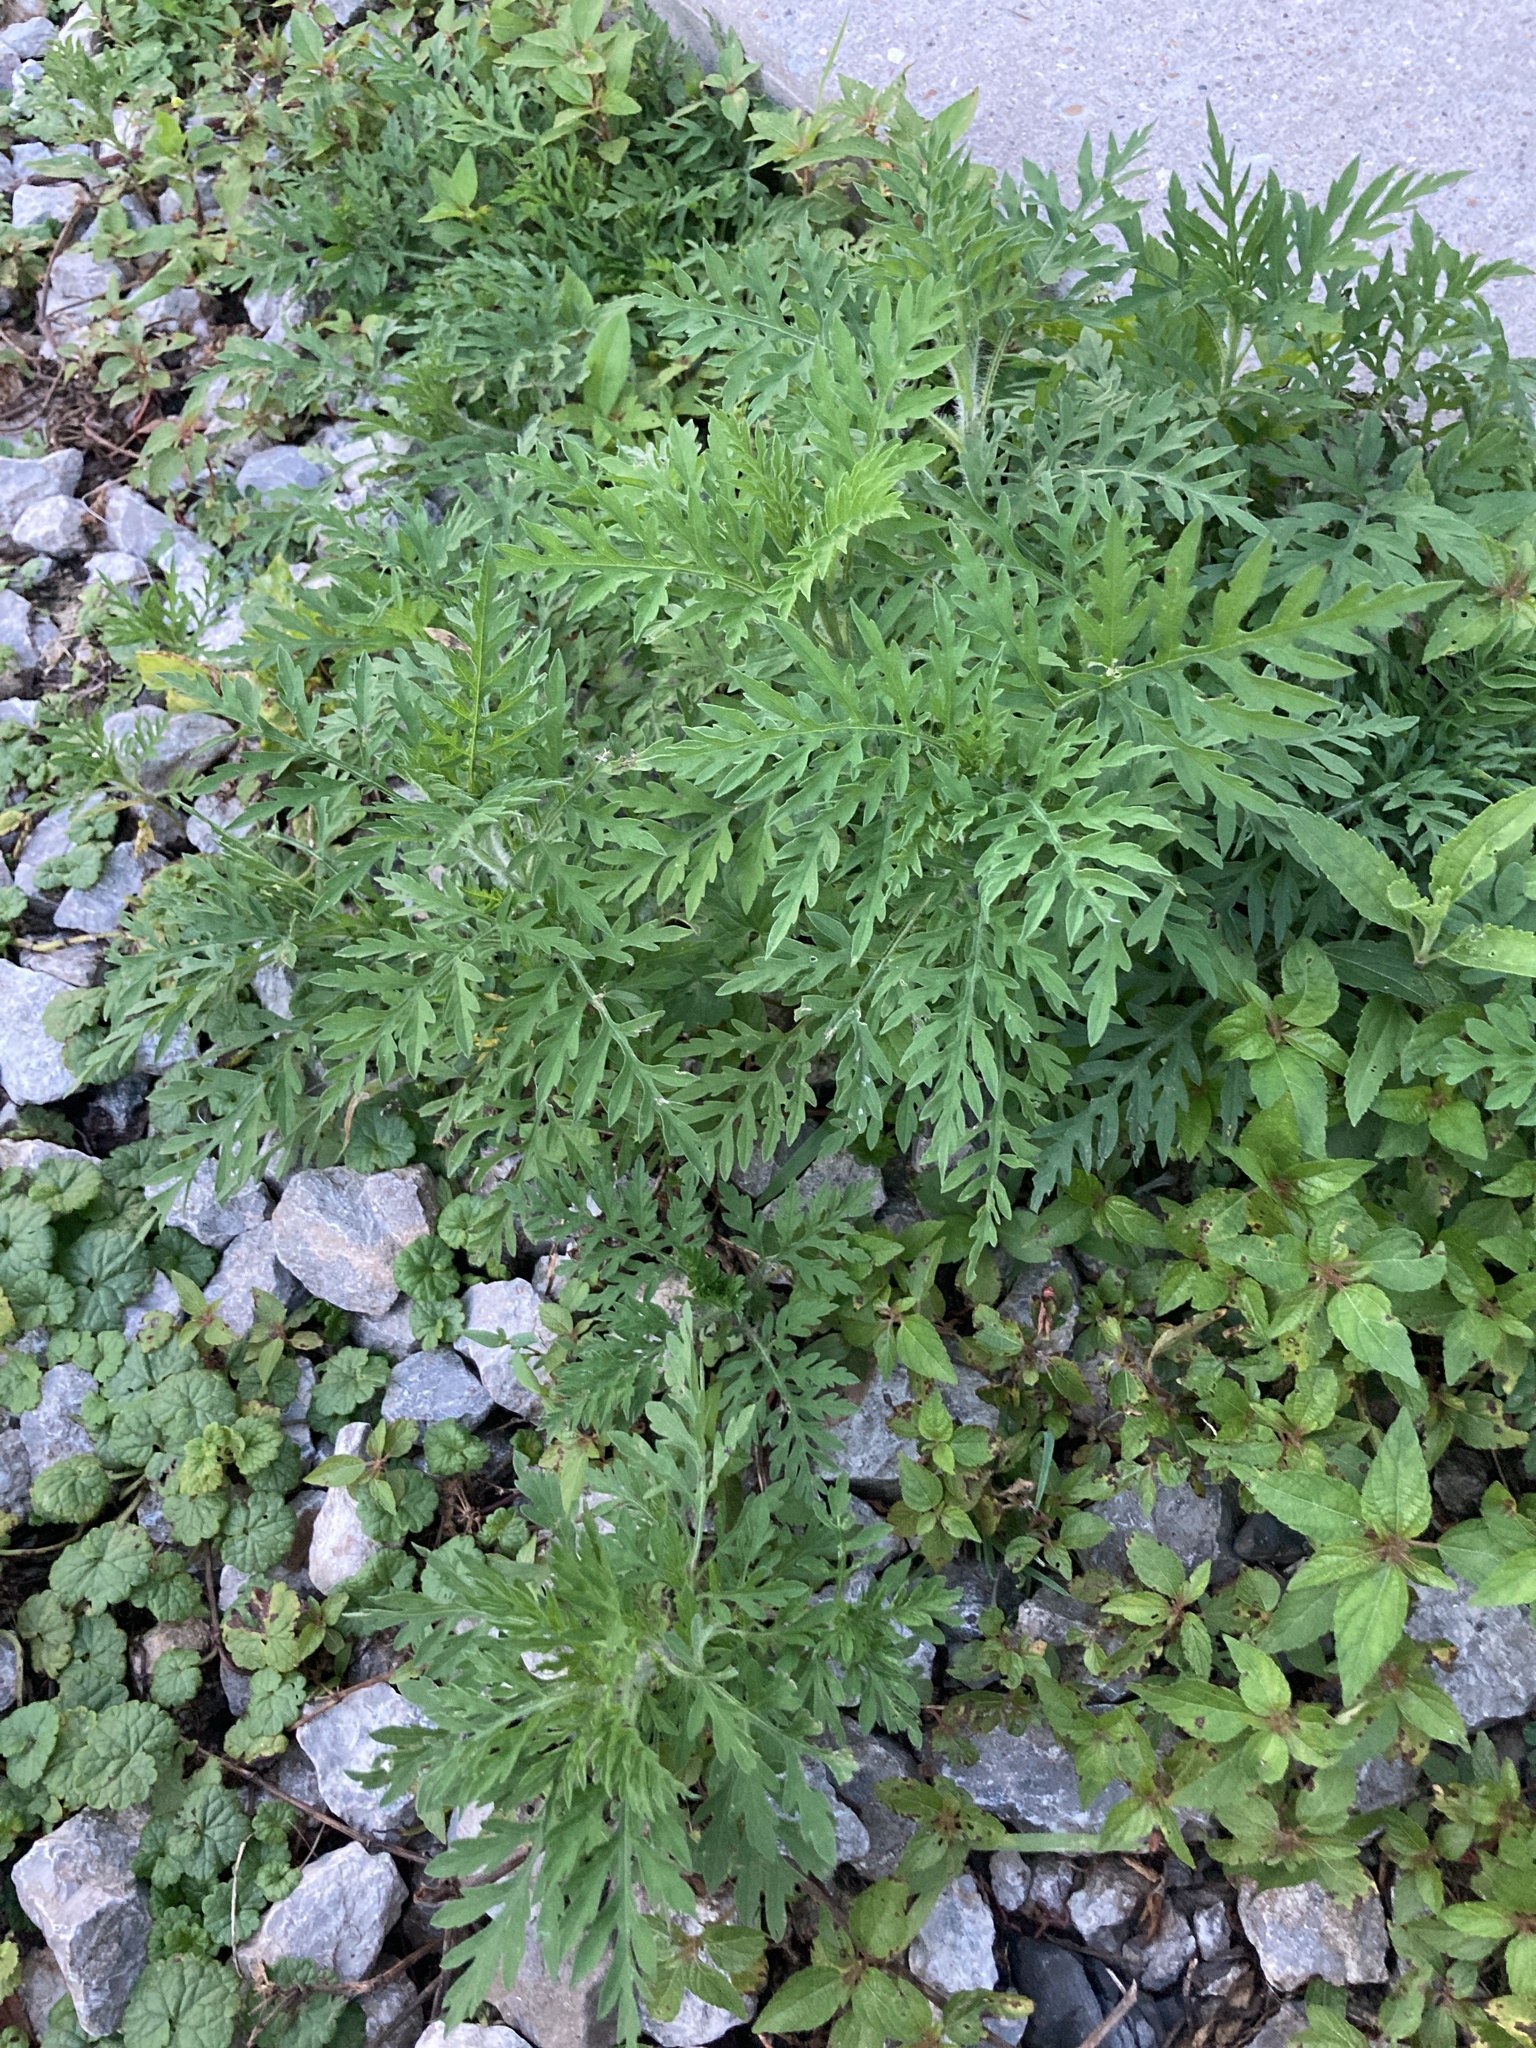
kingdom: Plantae
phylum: Tracheophyta
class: Magnoliopsida
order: Asterales
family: Asteraceae
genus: Ambrosia
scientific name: Ambrosia artemisiifolia
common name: Annual ragweed
